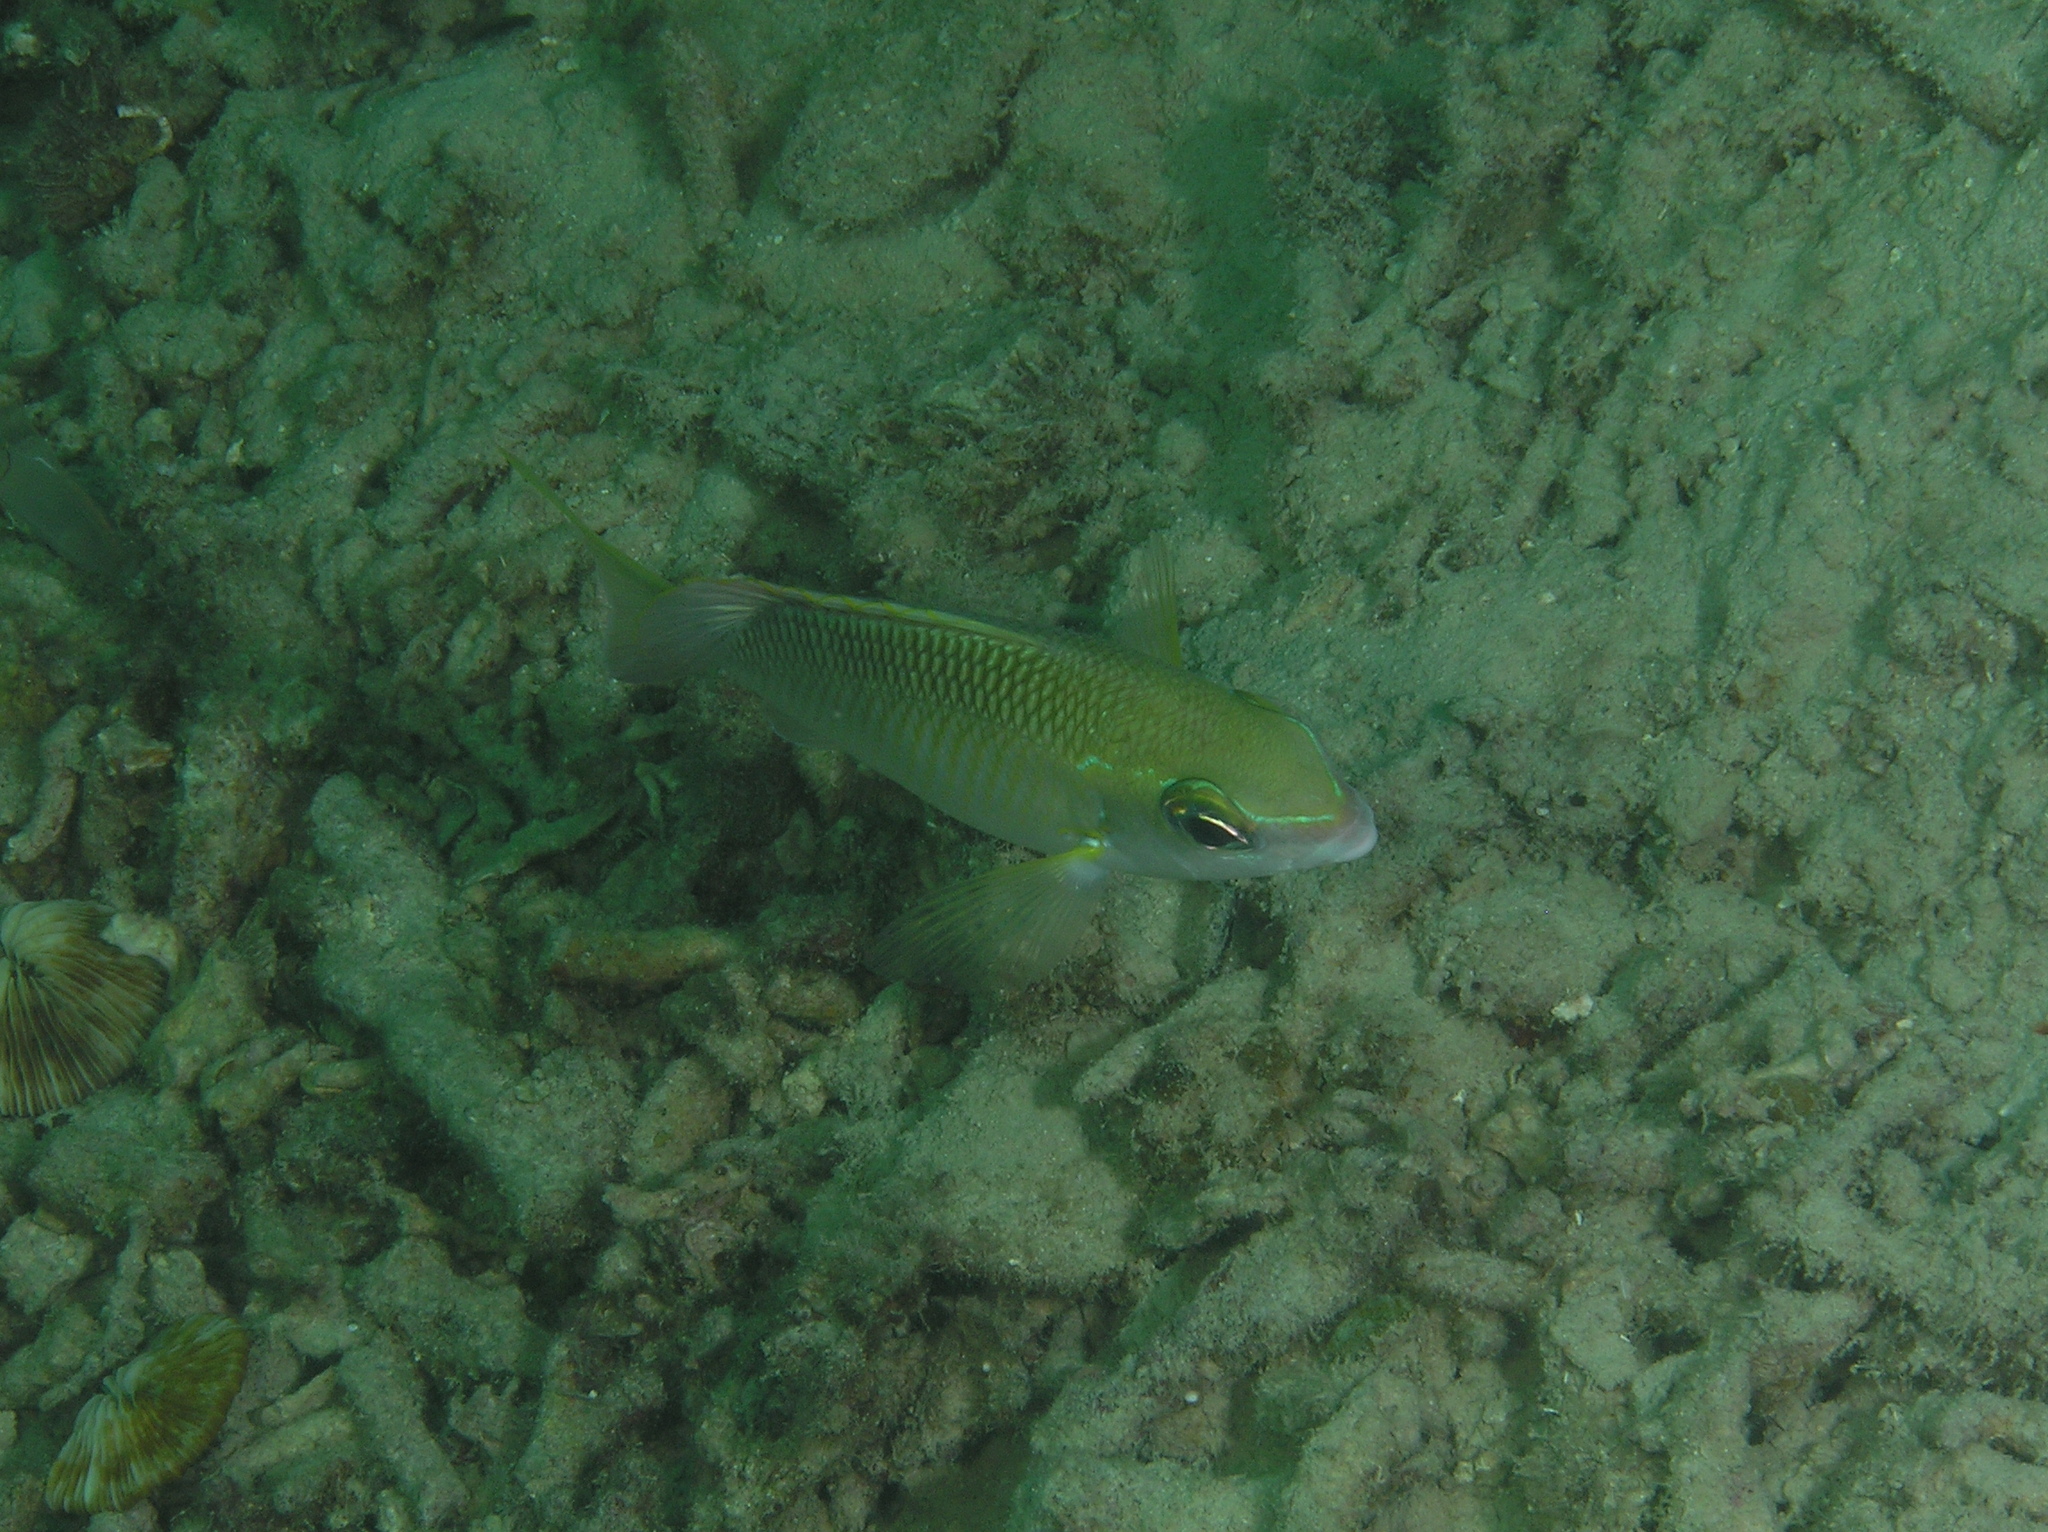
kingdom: Animalia
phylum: Chordata
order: Perciformes
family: Nemipteridae
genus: Scolopsis
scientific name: Scolopsis margaritifera
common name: Pearly monocle bream
